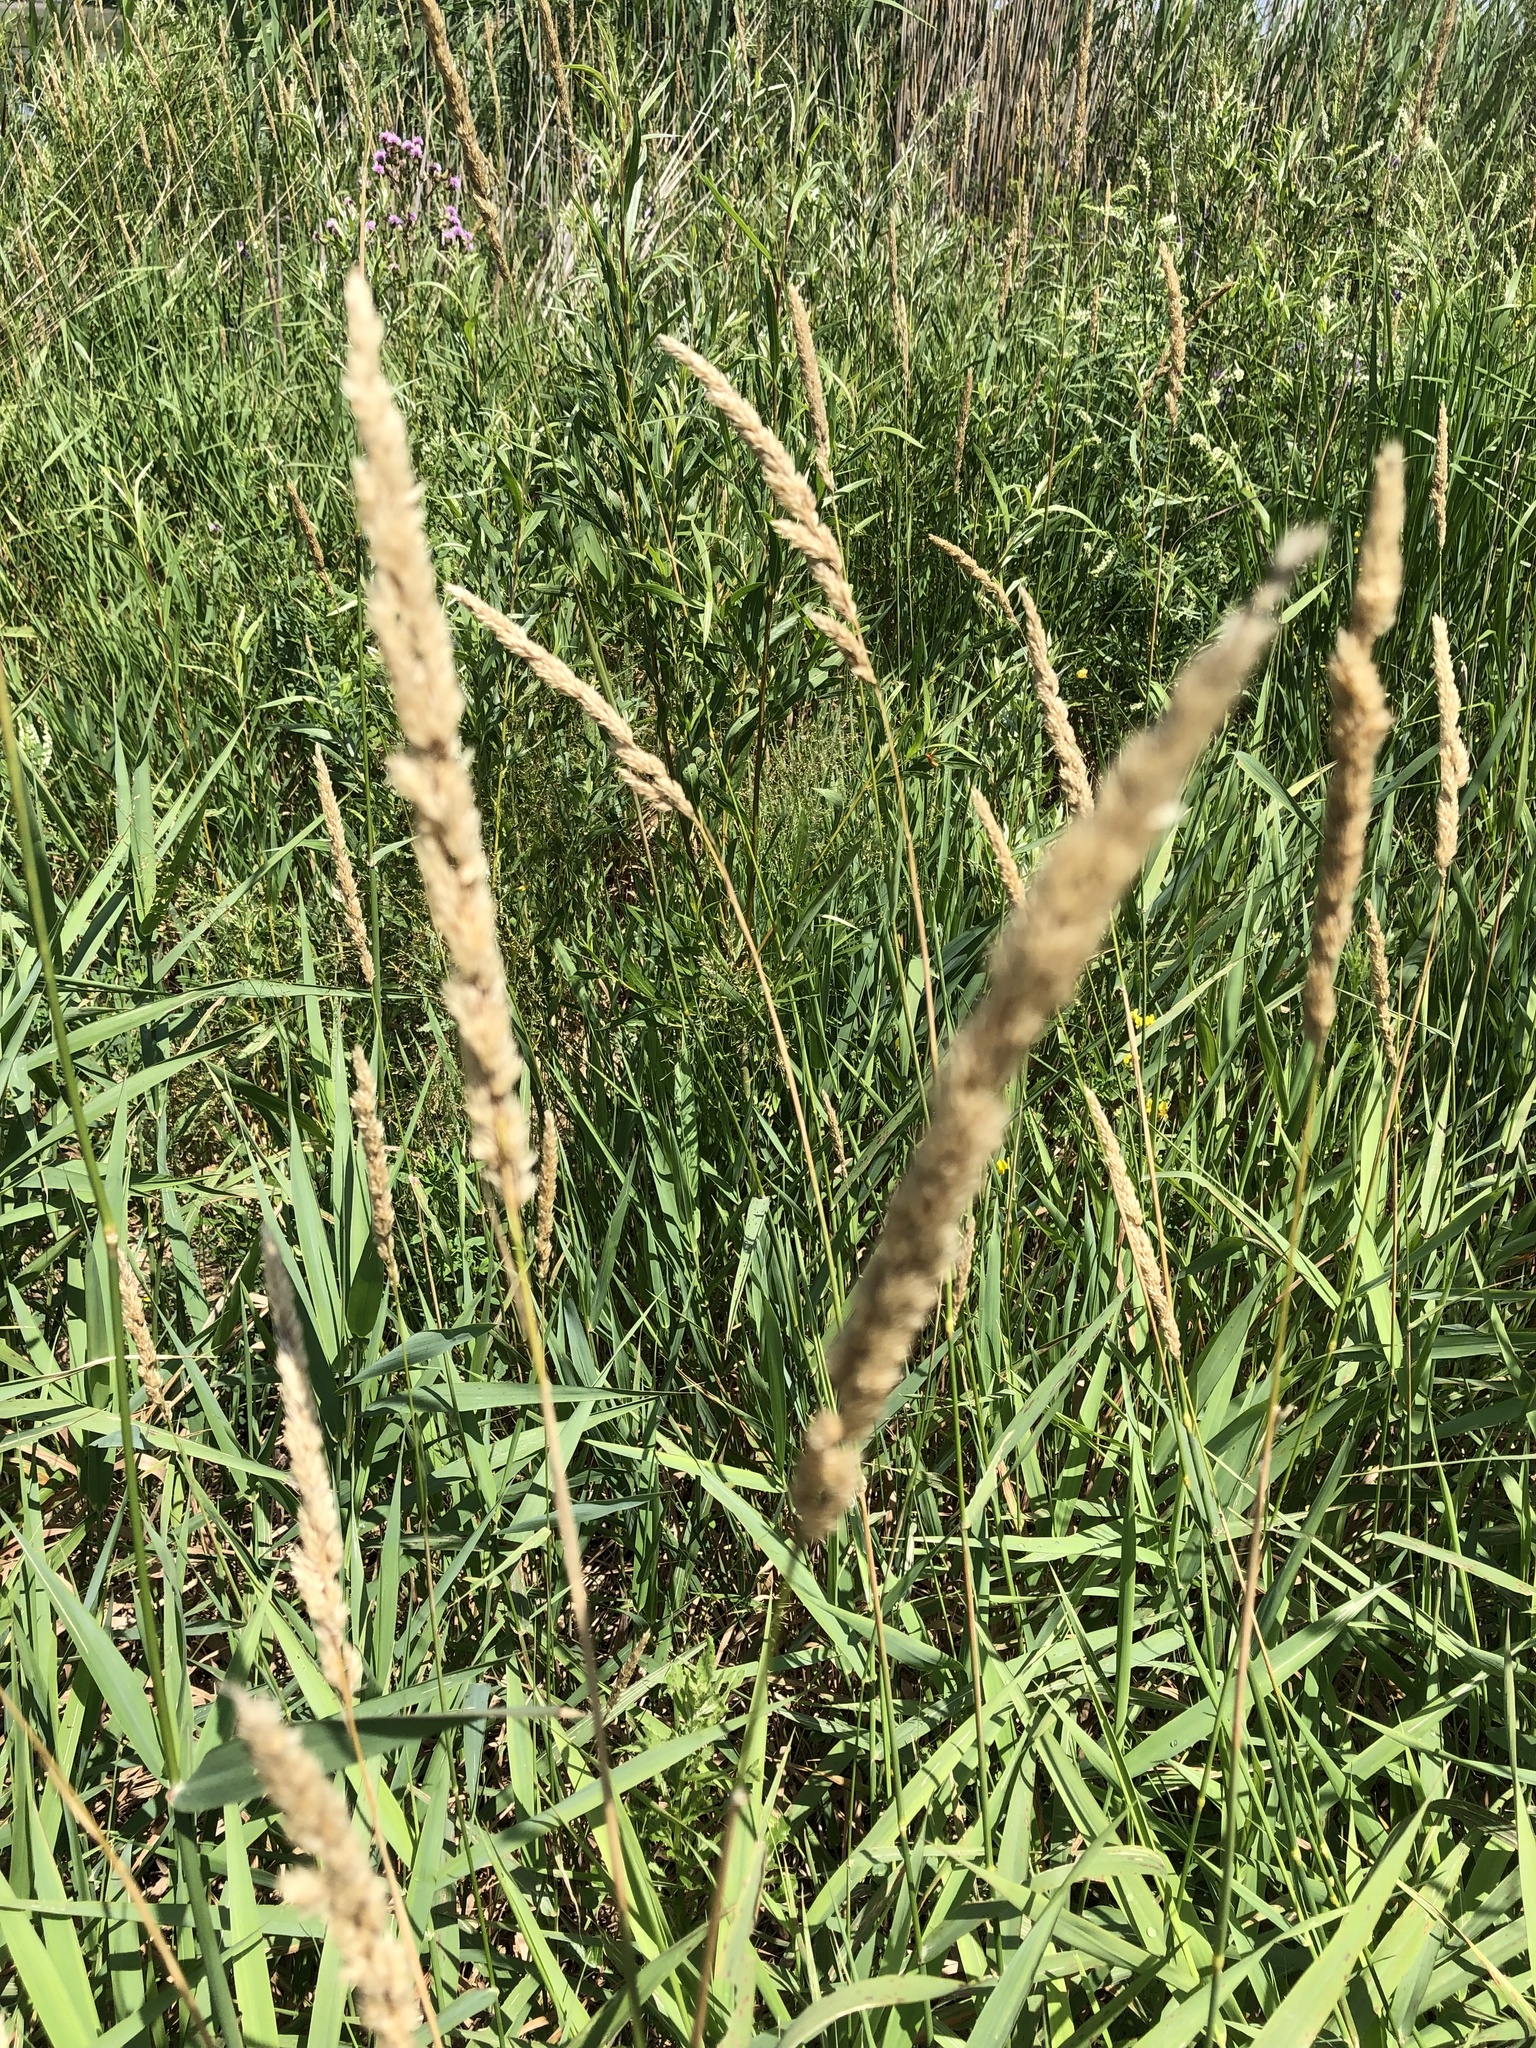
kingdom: Plantae
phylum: Tracheophyta
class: Liliopsida
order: Poales
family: Poaceae
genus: Phalaris
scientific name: Phalaris arundinacea
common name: Reed canary-grass
